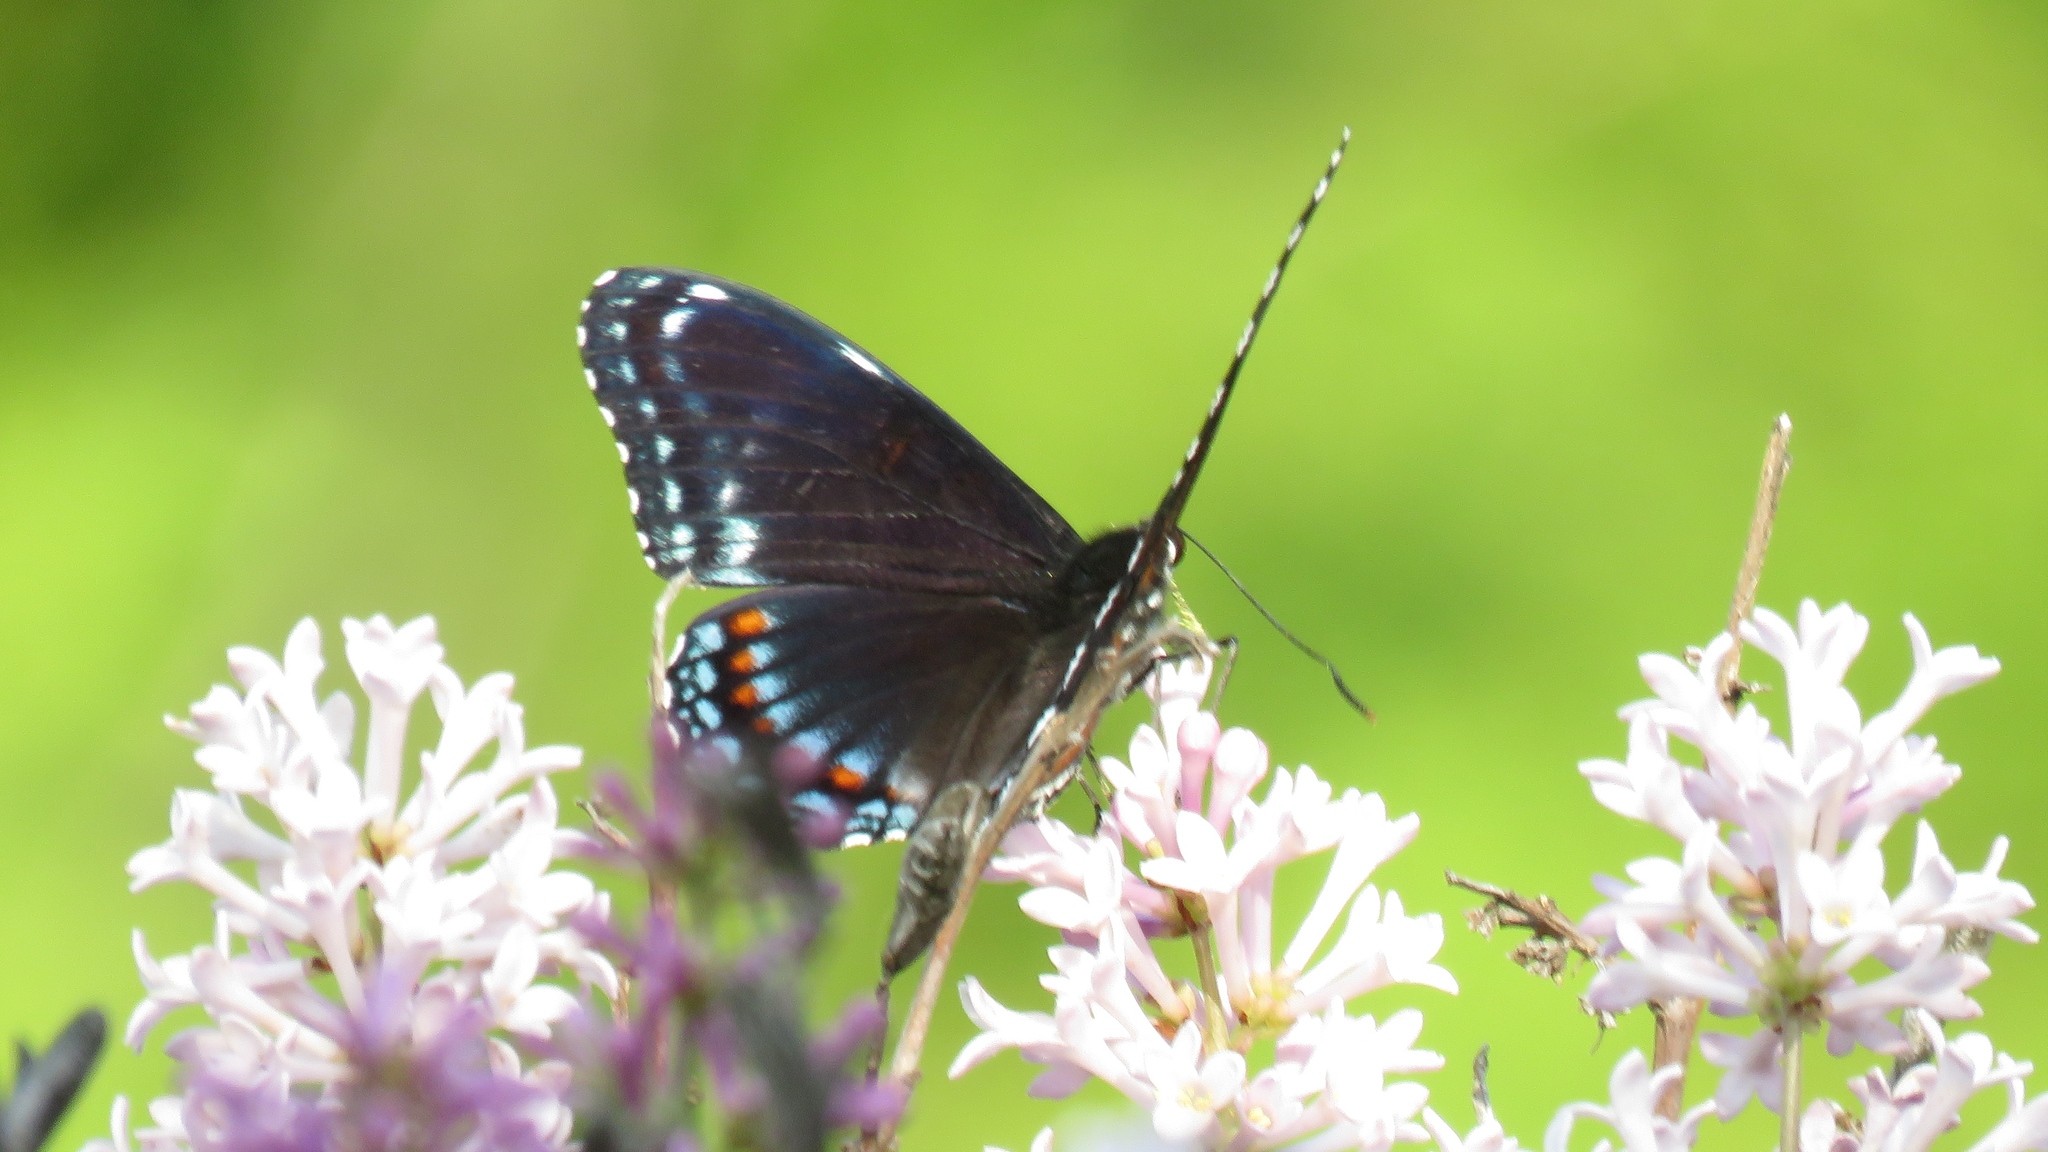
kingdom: Animalia
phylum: Arthropoda
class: Insecta
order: Lepidoptera
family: Nymphalidae
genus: Limenitis
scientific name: Limenitis astyanax
